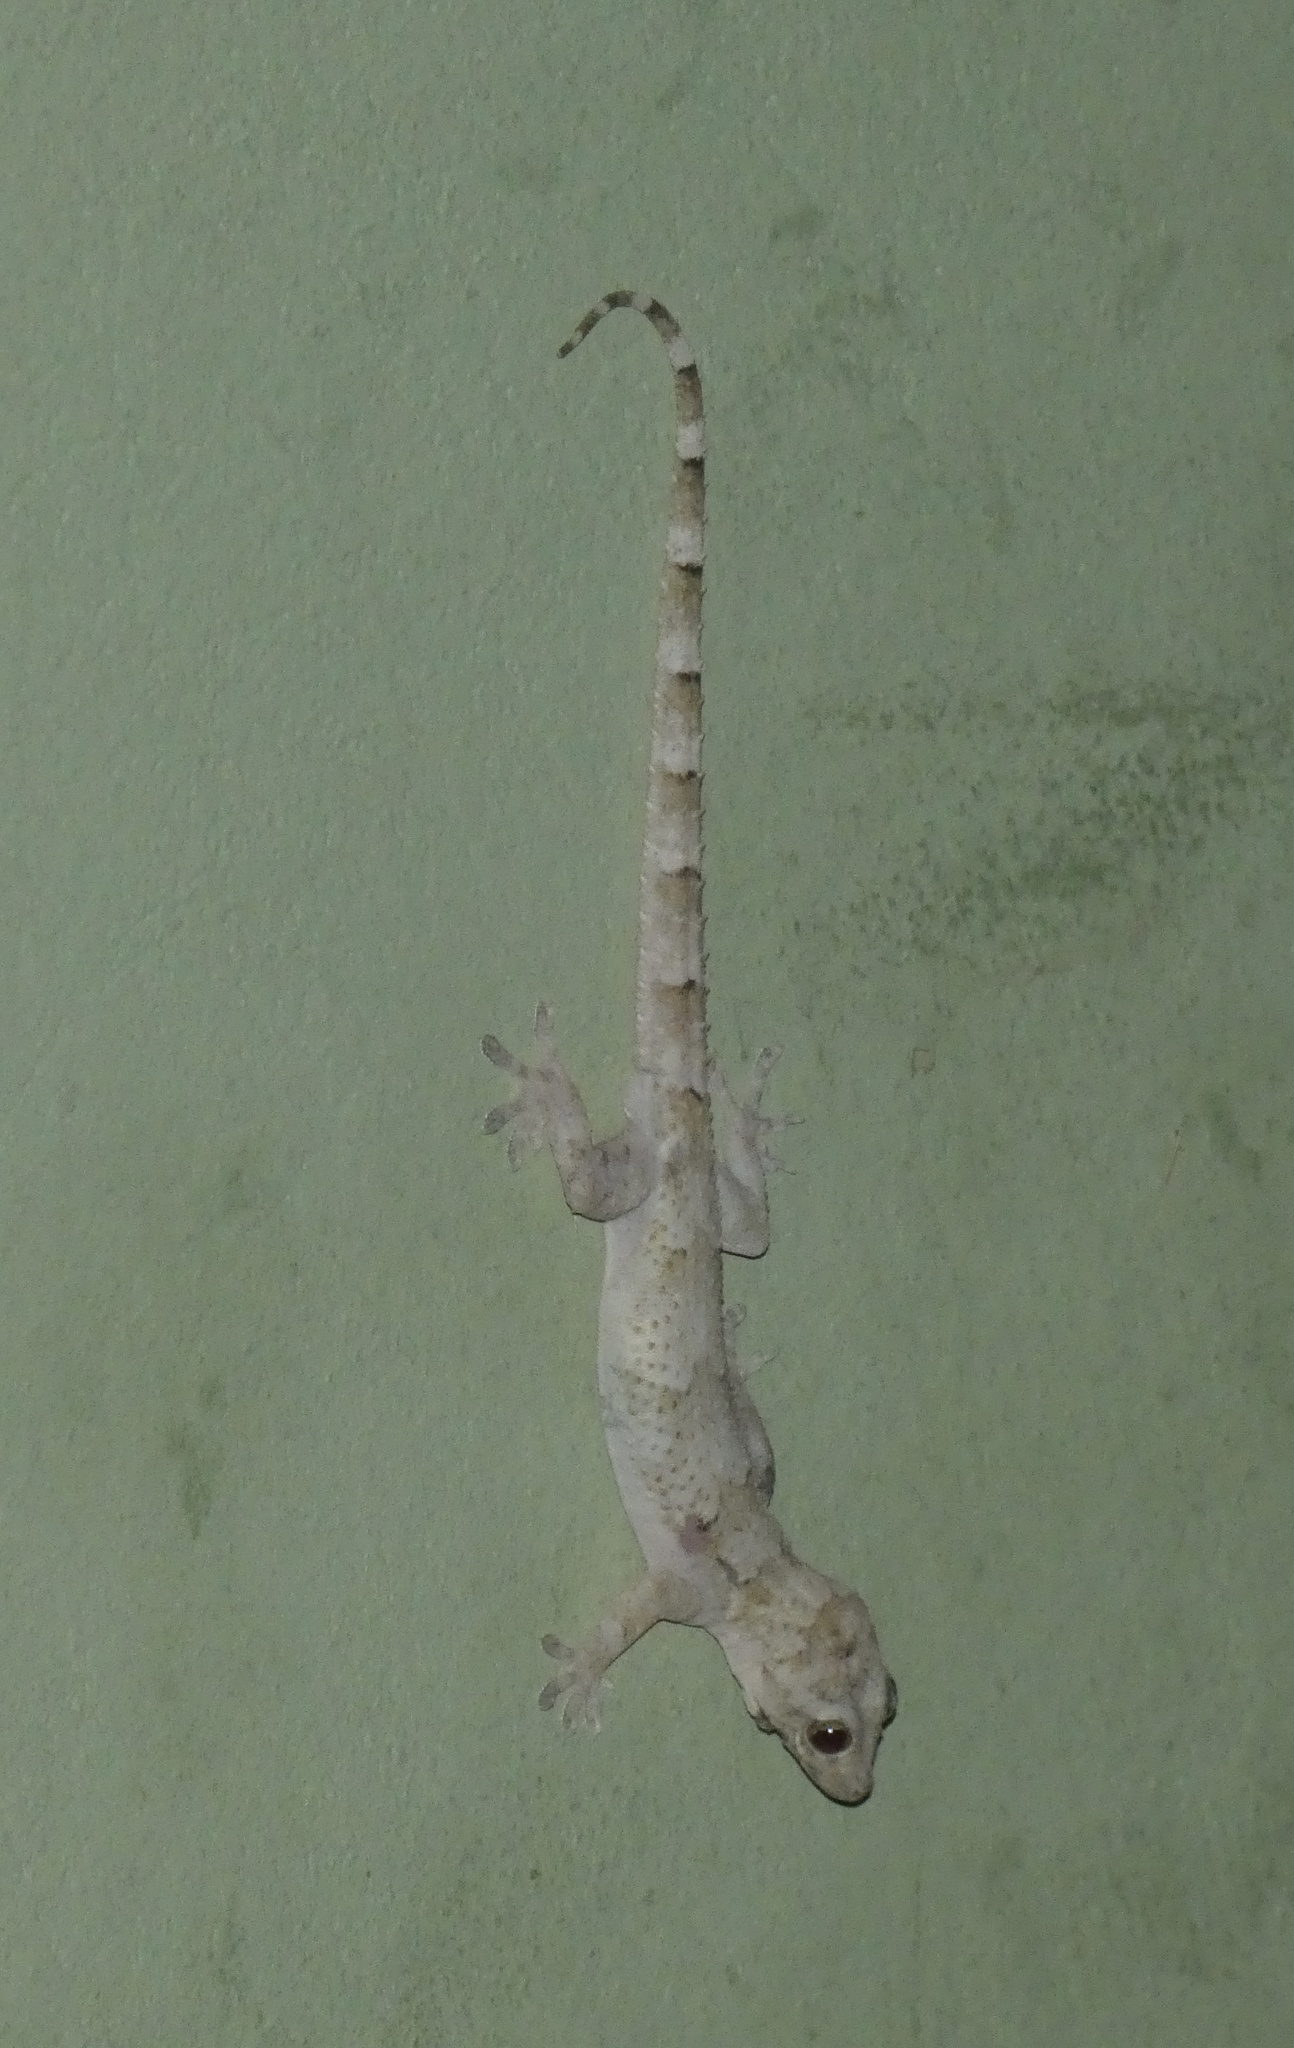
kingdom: Animalia
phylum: Chordata
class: Squamata
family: Gekkonidae
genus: Hemidactylus
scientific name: Hemidactylus mabouia
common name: House gecko
